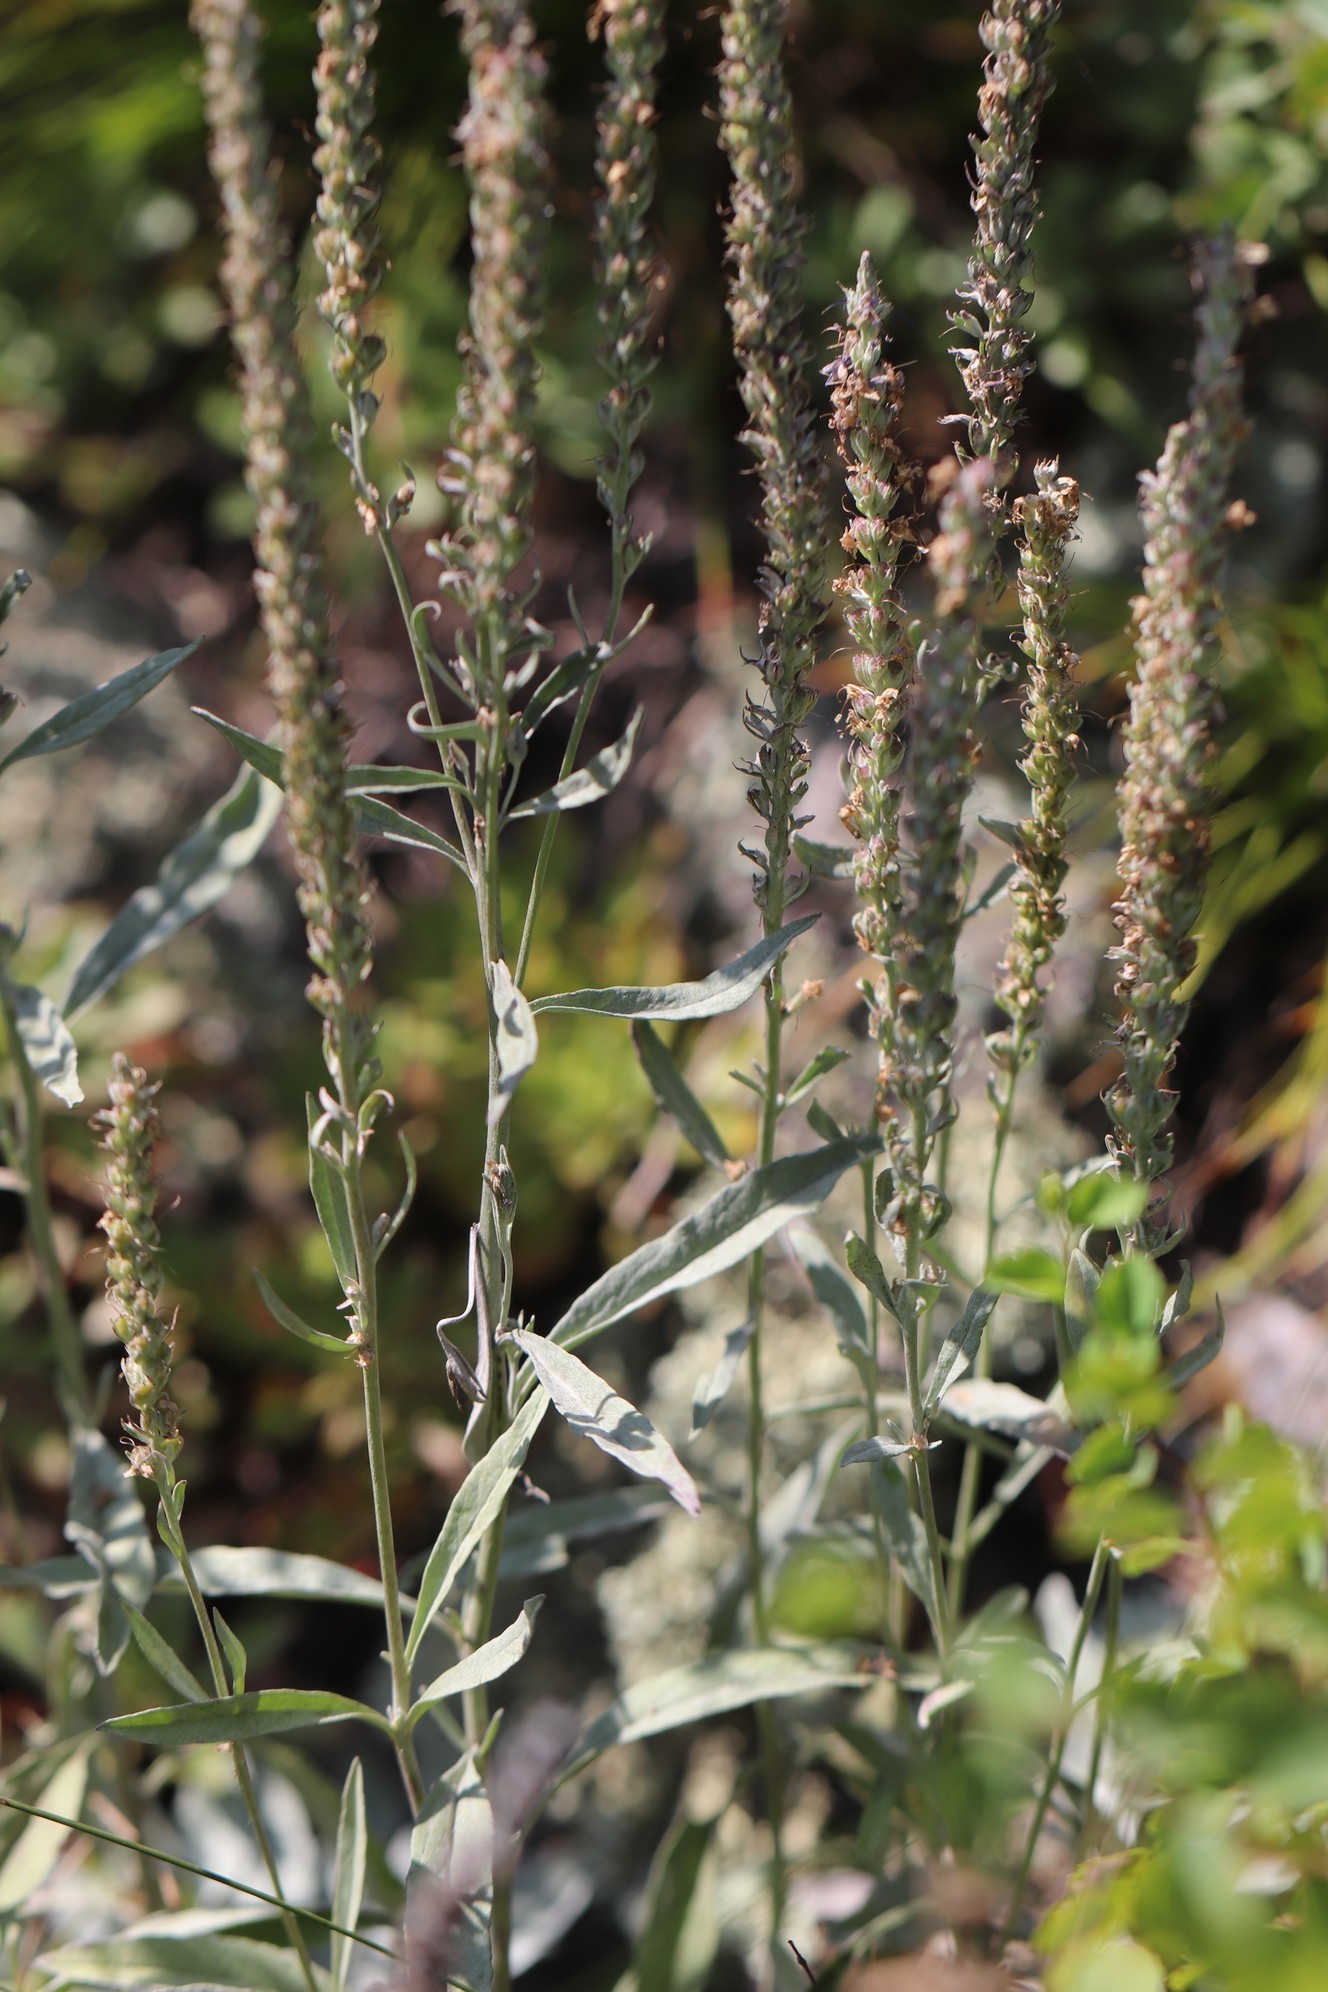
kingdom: Plantae
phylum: Tracheophyta
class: Magnoliopsida
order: Lamiales
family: Plantaginaceae
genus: Veronica
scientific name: Veronica incana
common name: Silver speedwell
